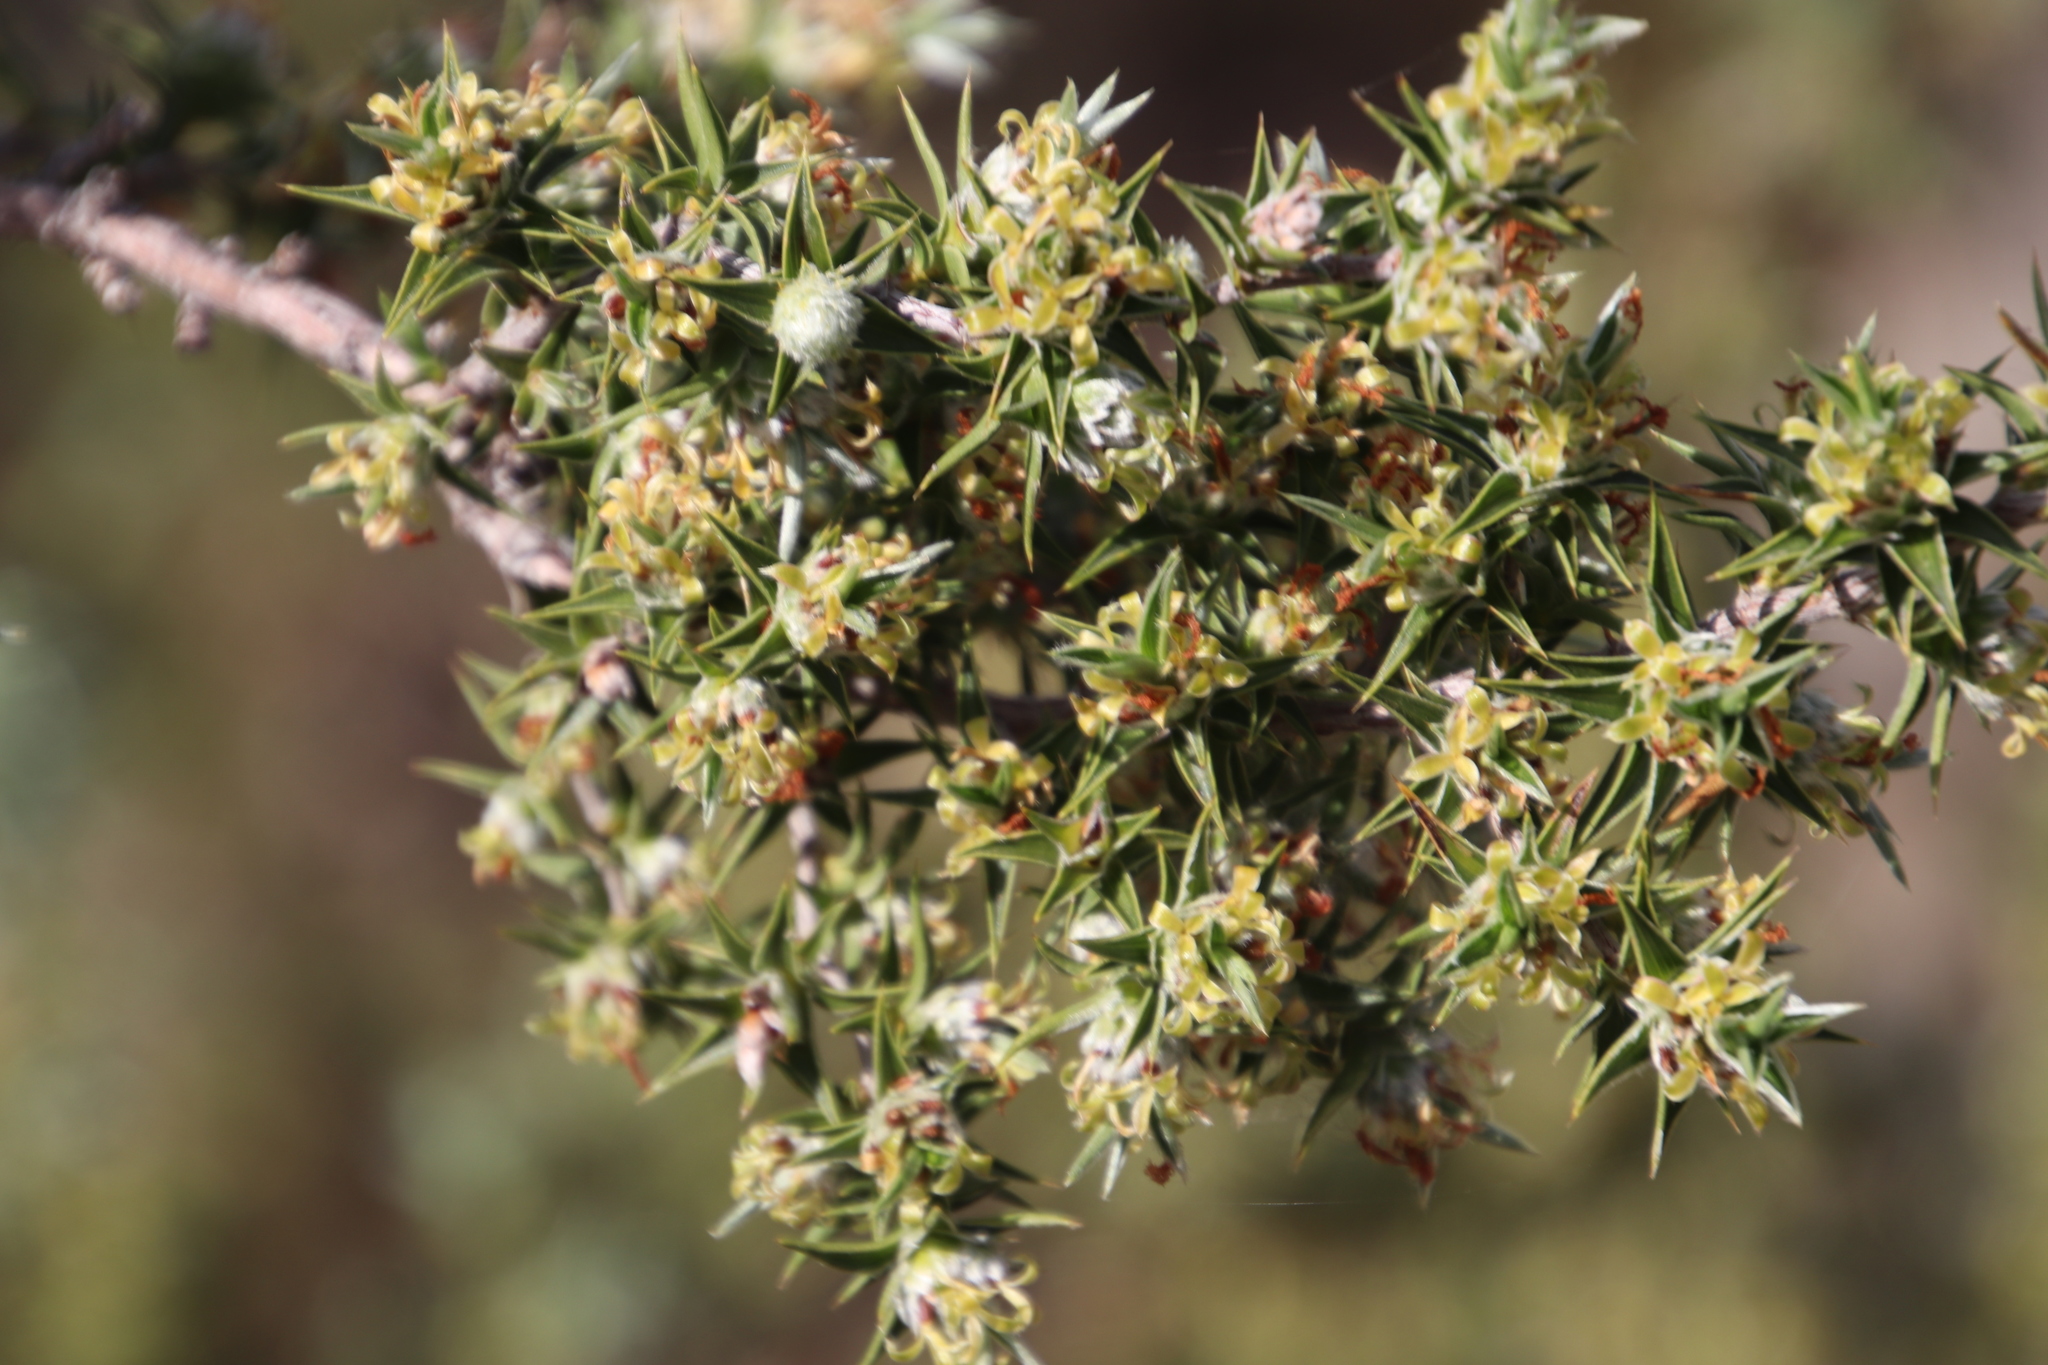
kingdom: Plantae
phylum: Tracheophyta
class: Magnoliopsida
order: Rosales
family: Rosaceae
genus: Cliffortia
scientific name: Cliffortia ruscifolia
